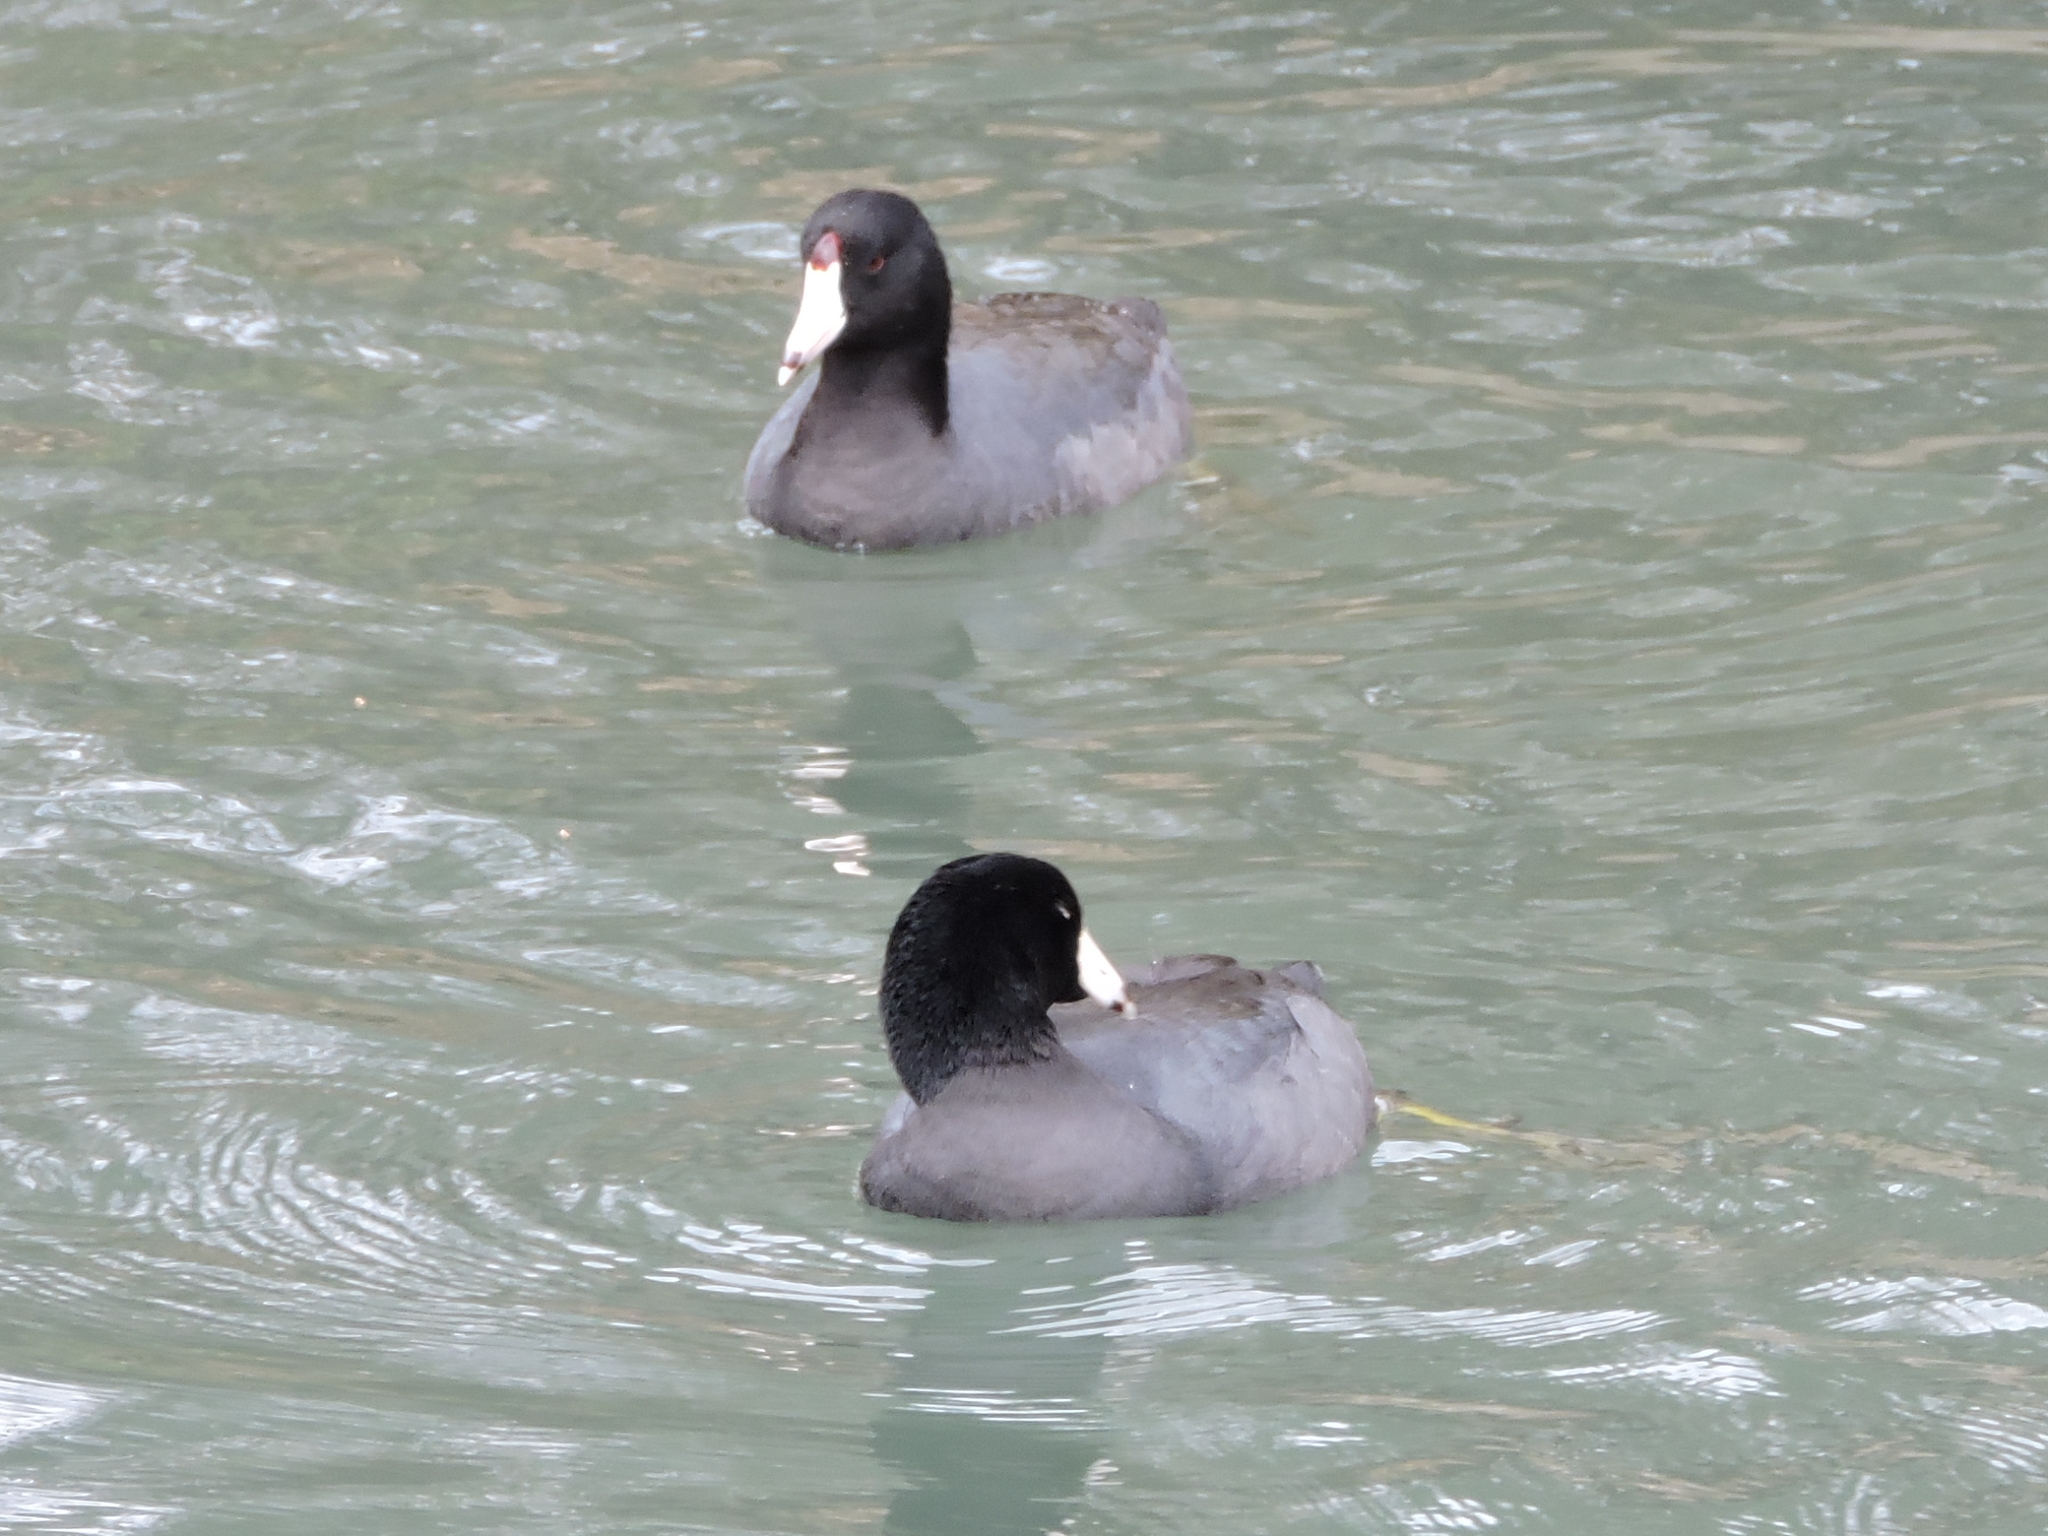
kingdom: Animalia
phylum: Chordata
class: Aves
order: Gruiformes
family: Rallidae
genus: Fulica
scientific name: Fulica americana
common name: American coot
